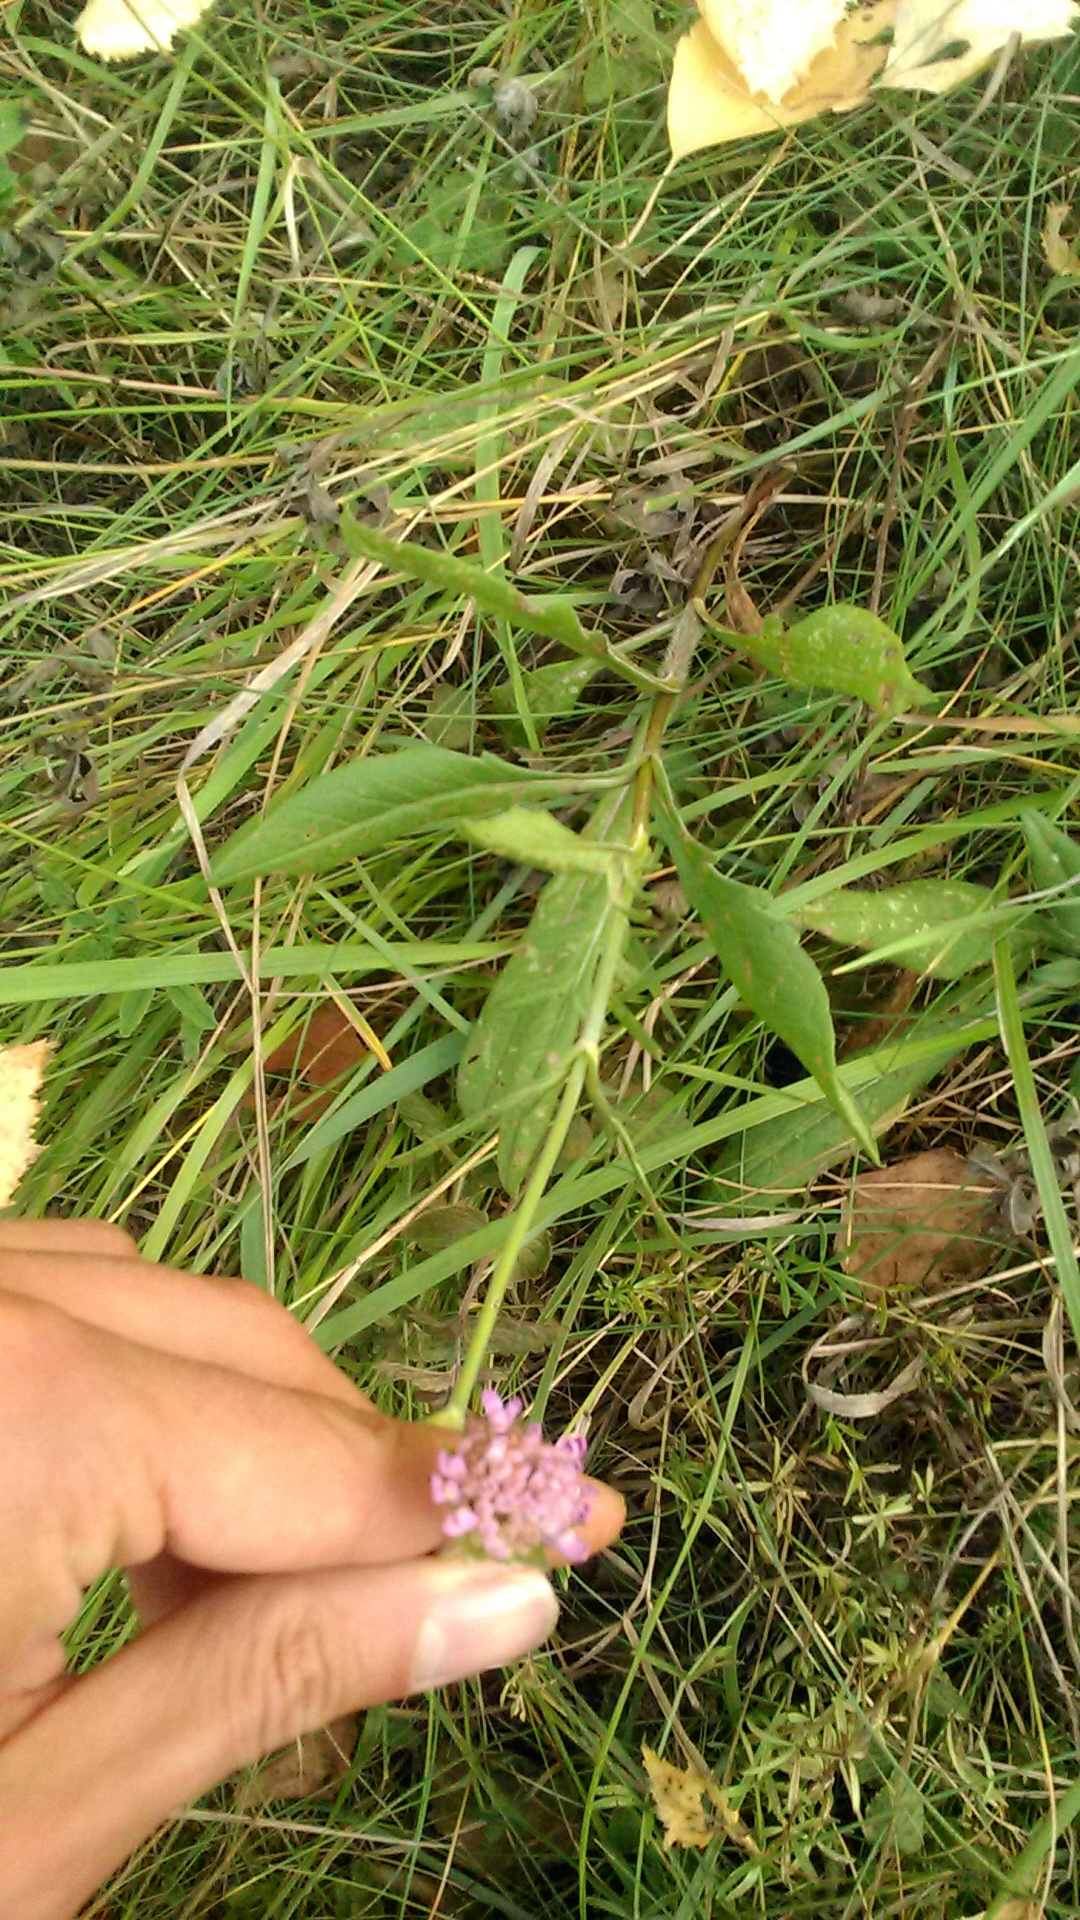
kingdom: Plantae
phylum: Tracheophyta
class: Magnoliopsida
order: Dipsacales
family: Caprifoliaceae
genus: Knautia
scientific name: Knautia arvensis
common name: Field scabiosa
